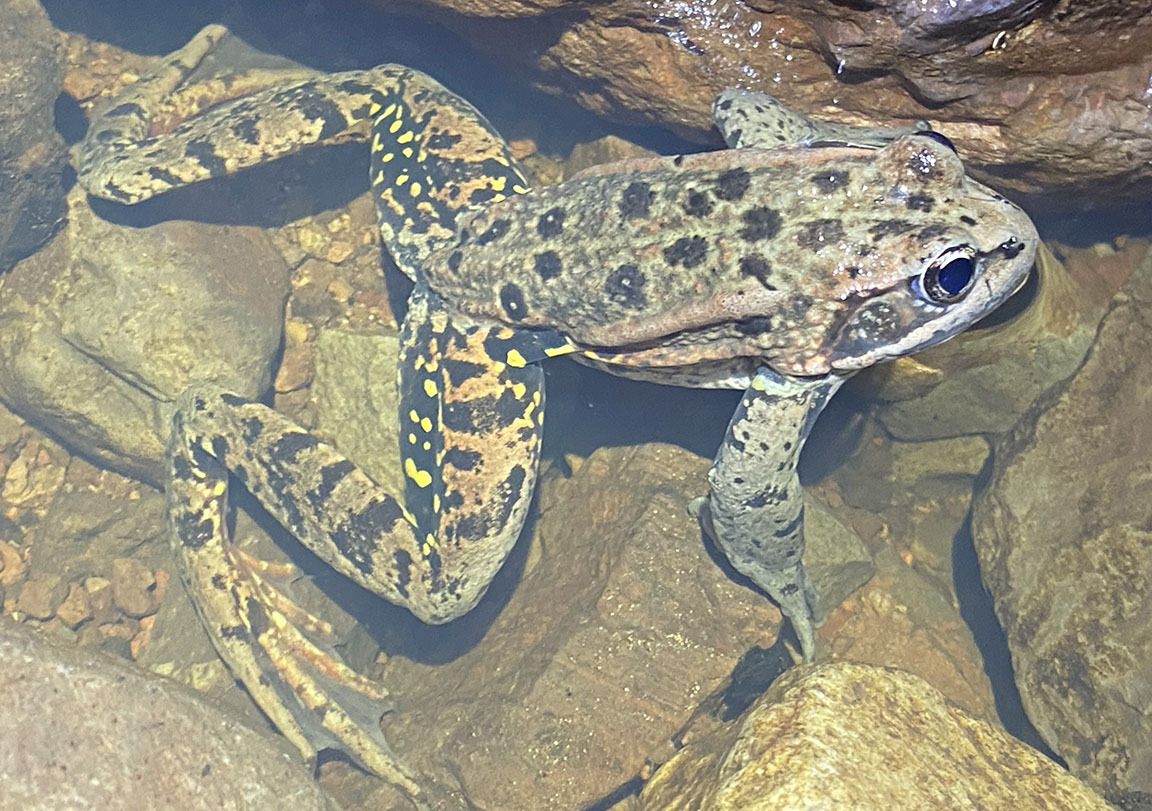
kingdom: Animalia
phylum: Chordata
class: Amphibia
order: Anura
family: Ranidae
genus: Rana
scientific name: Rana draytonii
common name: California red-legged frog
